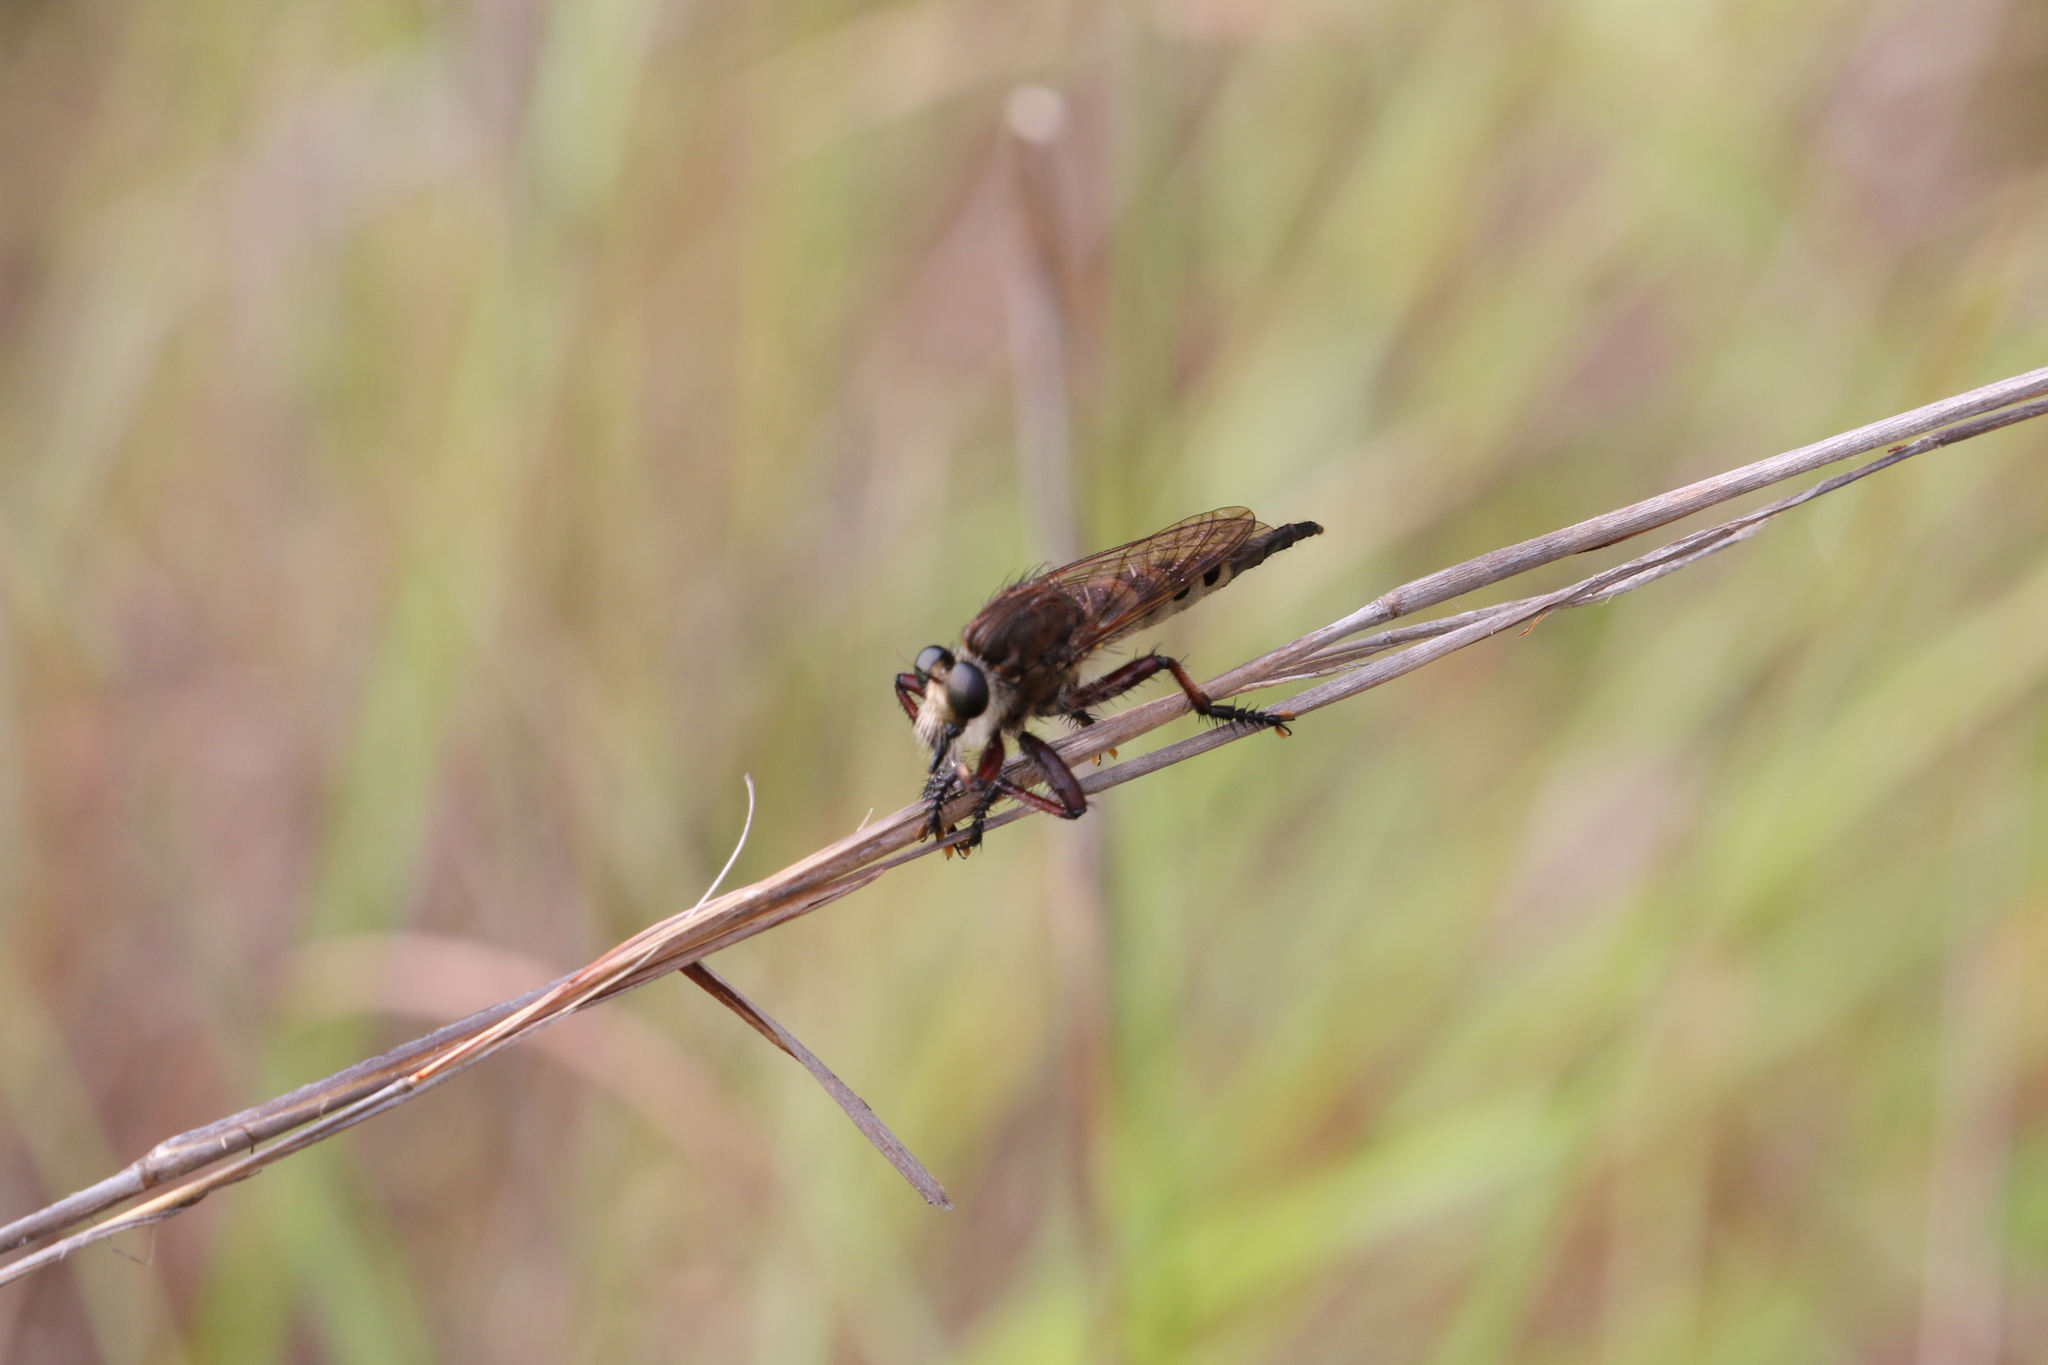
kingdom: Animalia
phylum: Arthropoda
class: Insecta
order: Diptera
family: Asilidae
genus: Promachus
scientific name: Promachus hinei
